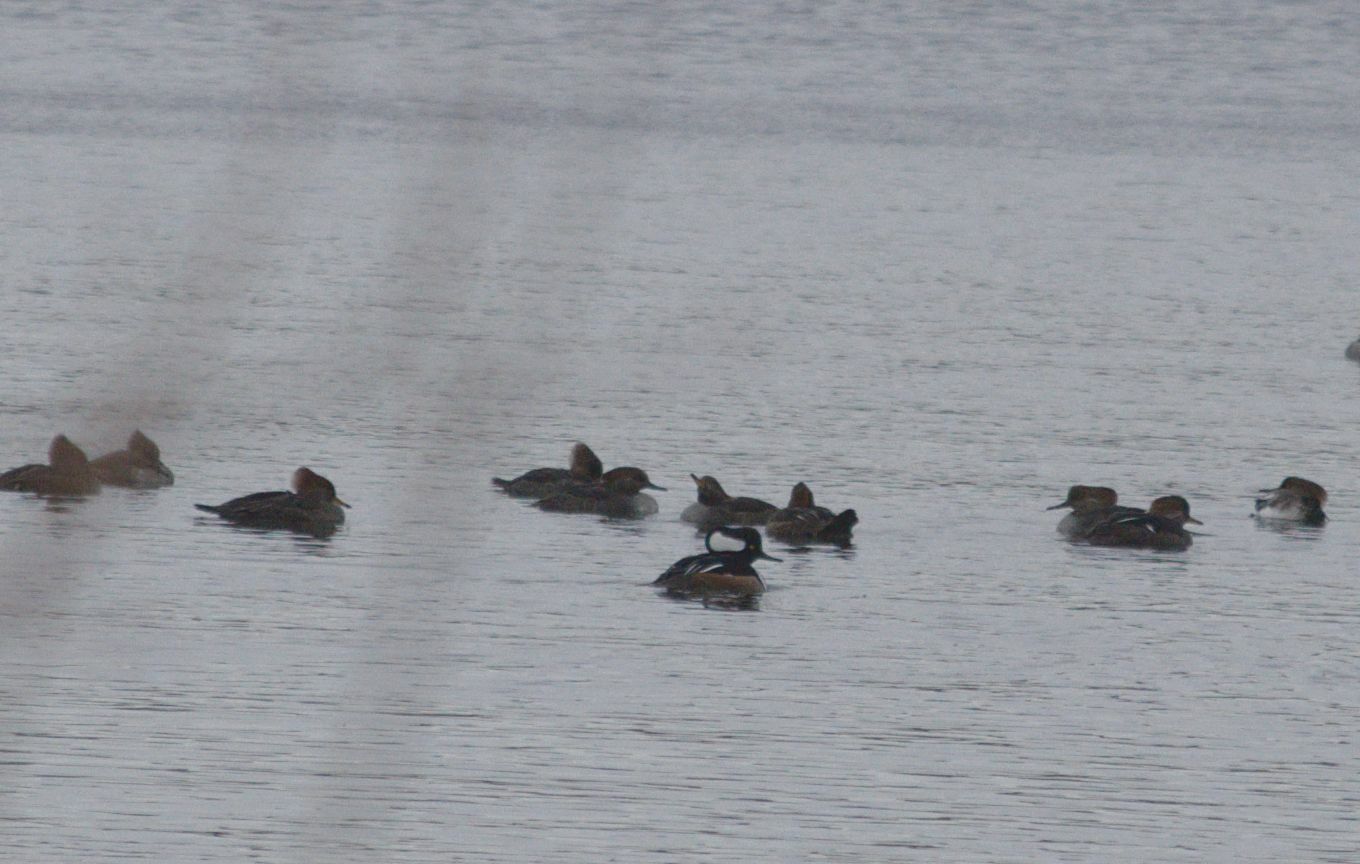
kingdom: Animalia
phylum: Chordata
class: Aves
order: Anseriformes
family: Anatidae
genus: Lophodytes
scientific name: Lophodytes cucullatus
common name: Hooded merganser
